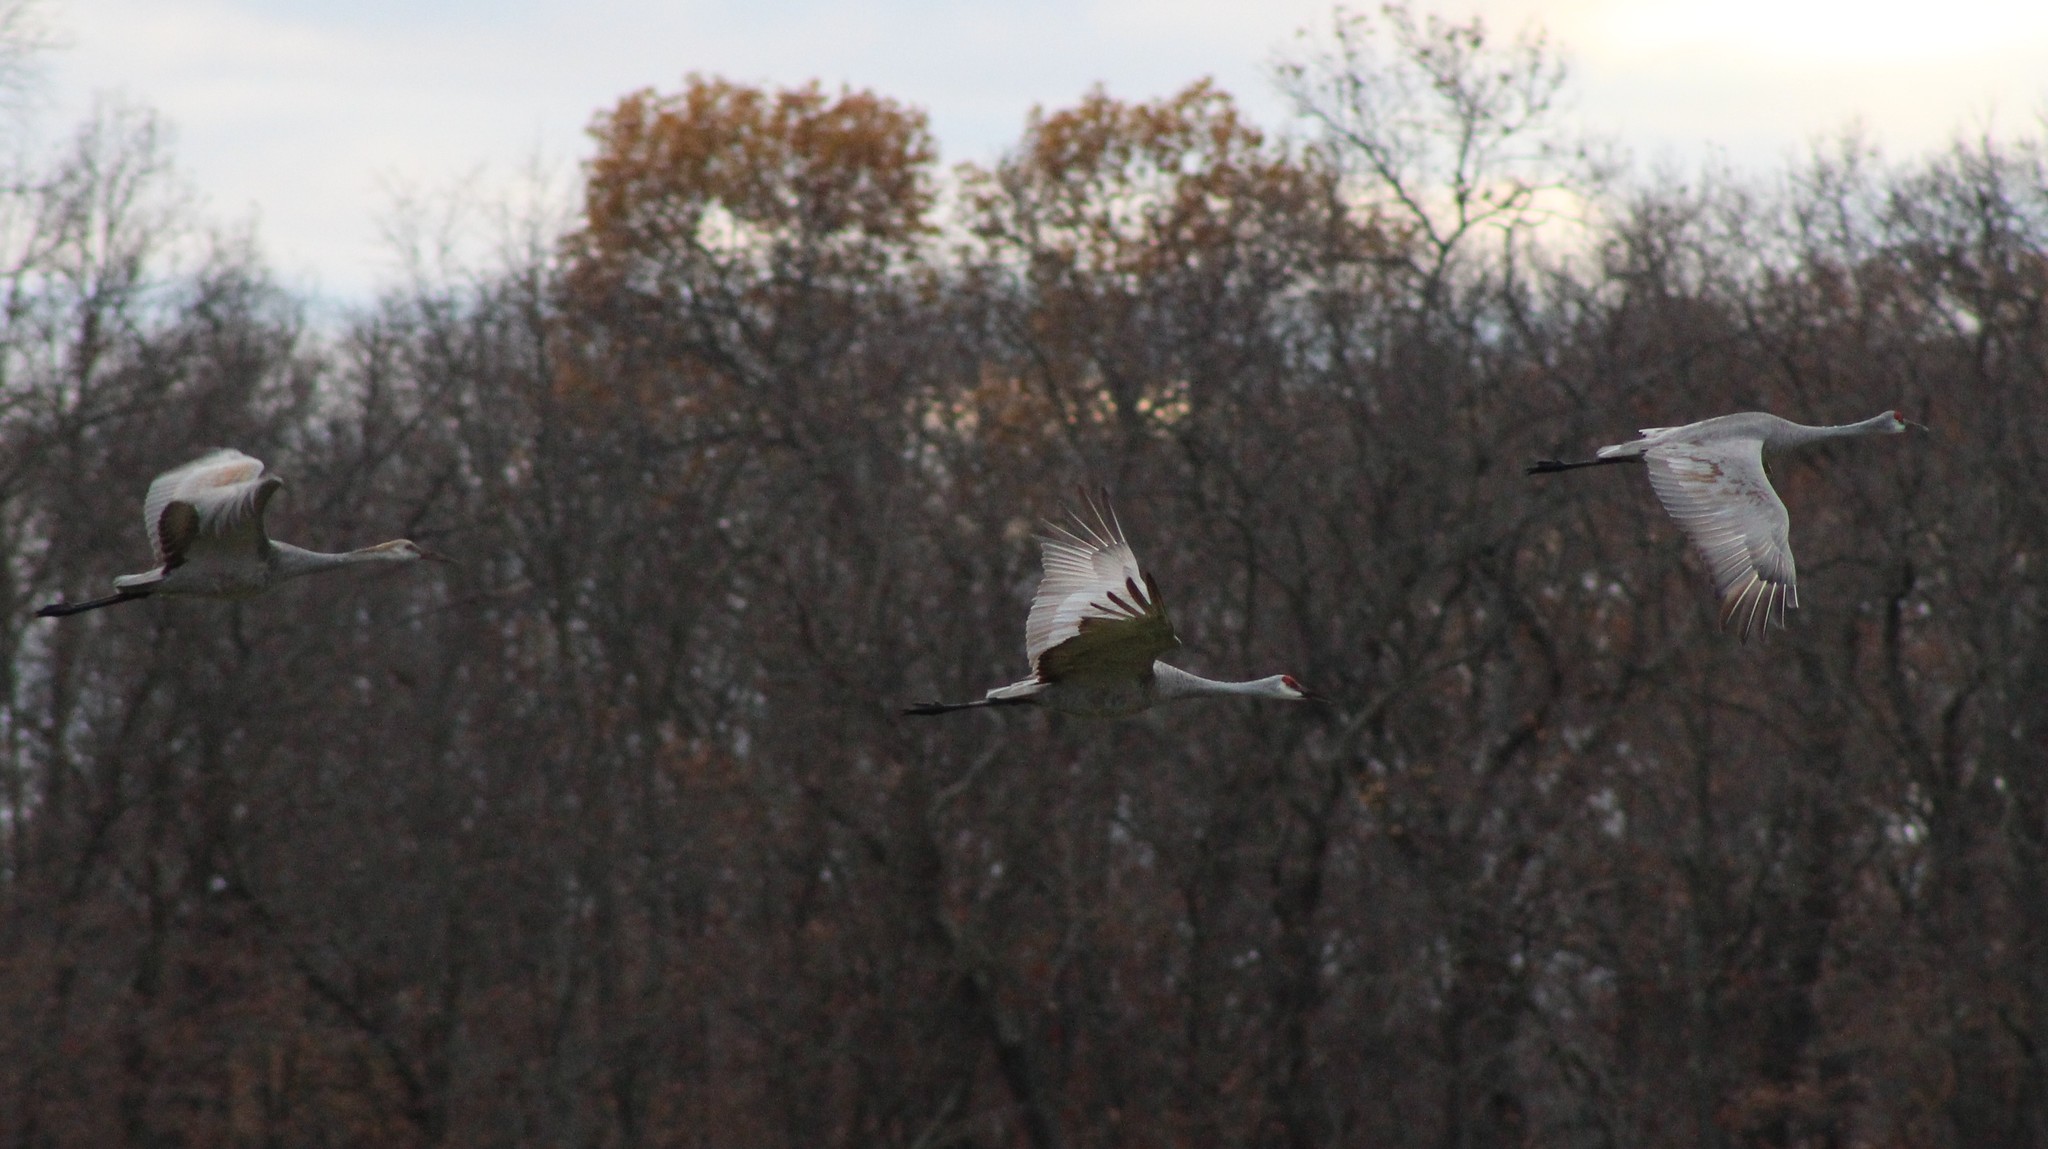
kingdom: Animalia
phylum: Chordata
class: Aves
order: Gruiformes
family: Gruidae
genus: Grus
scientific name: Grus canadensis
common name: Sandhill crane
